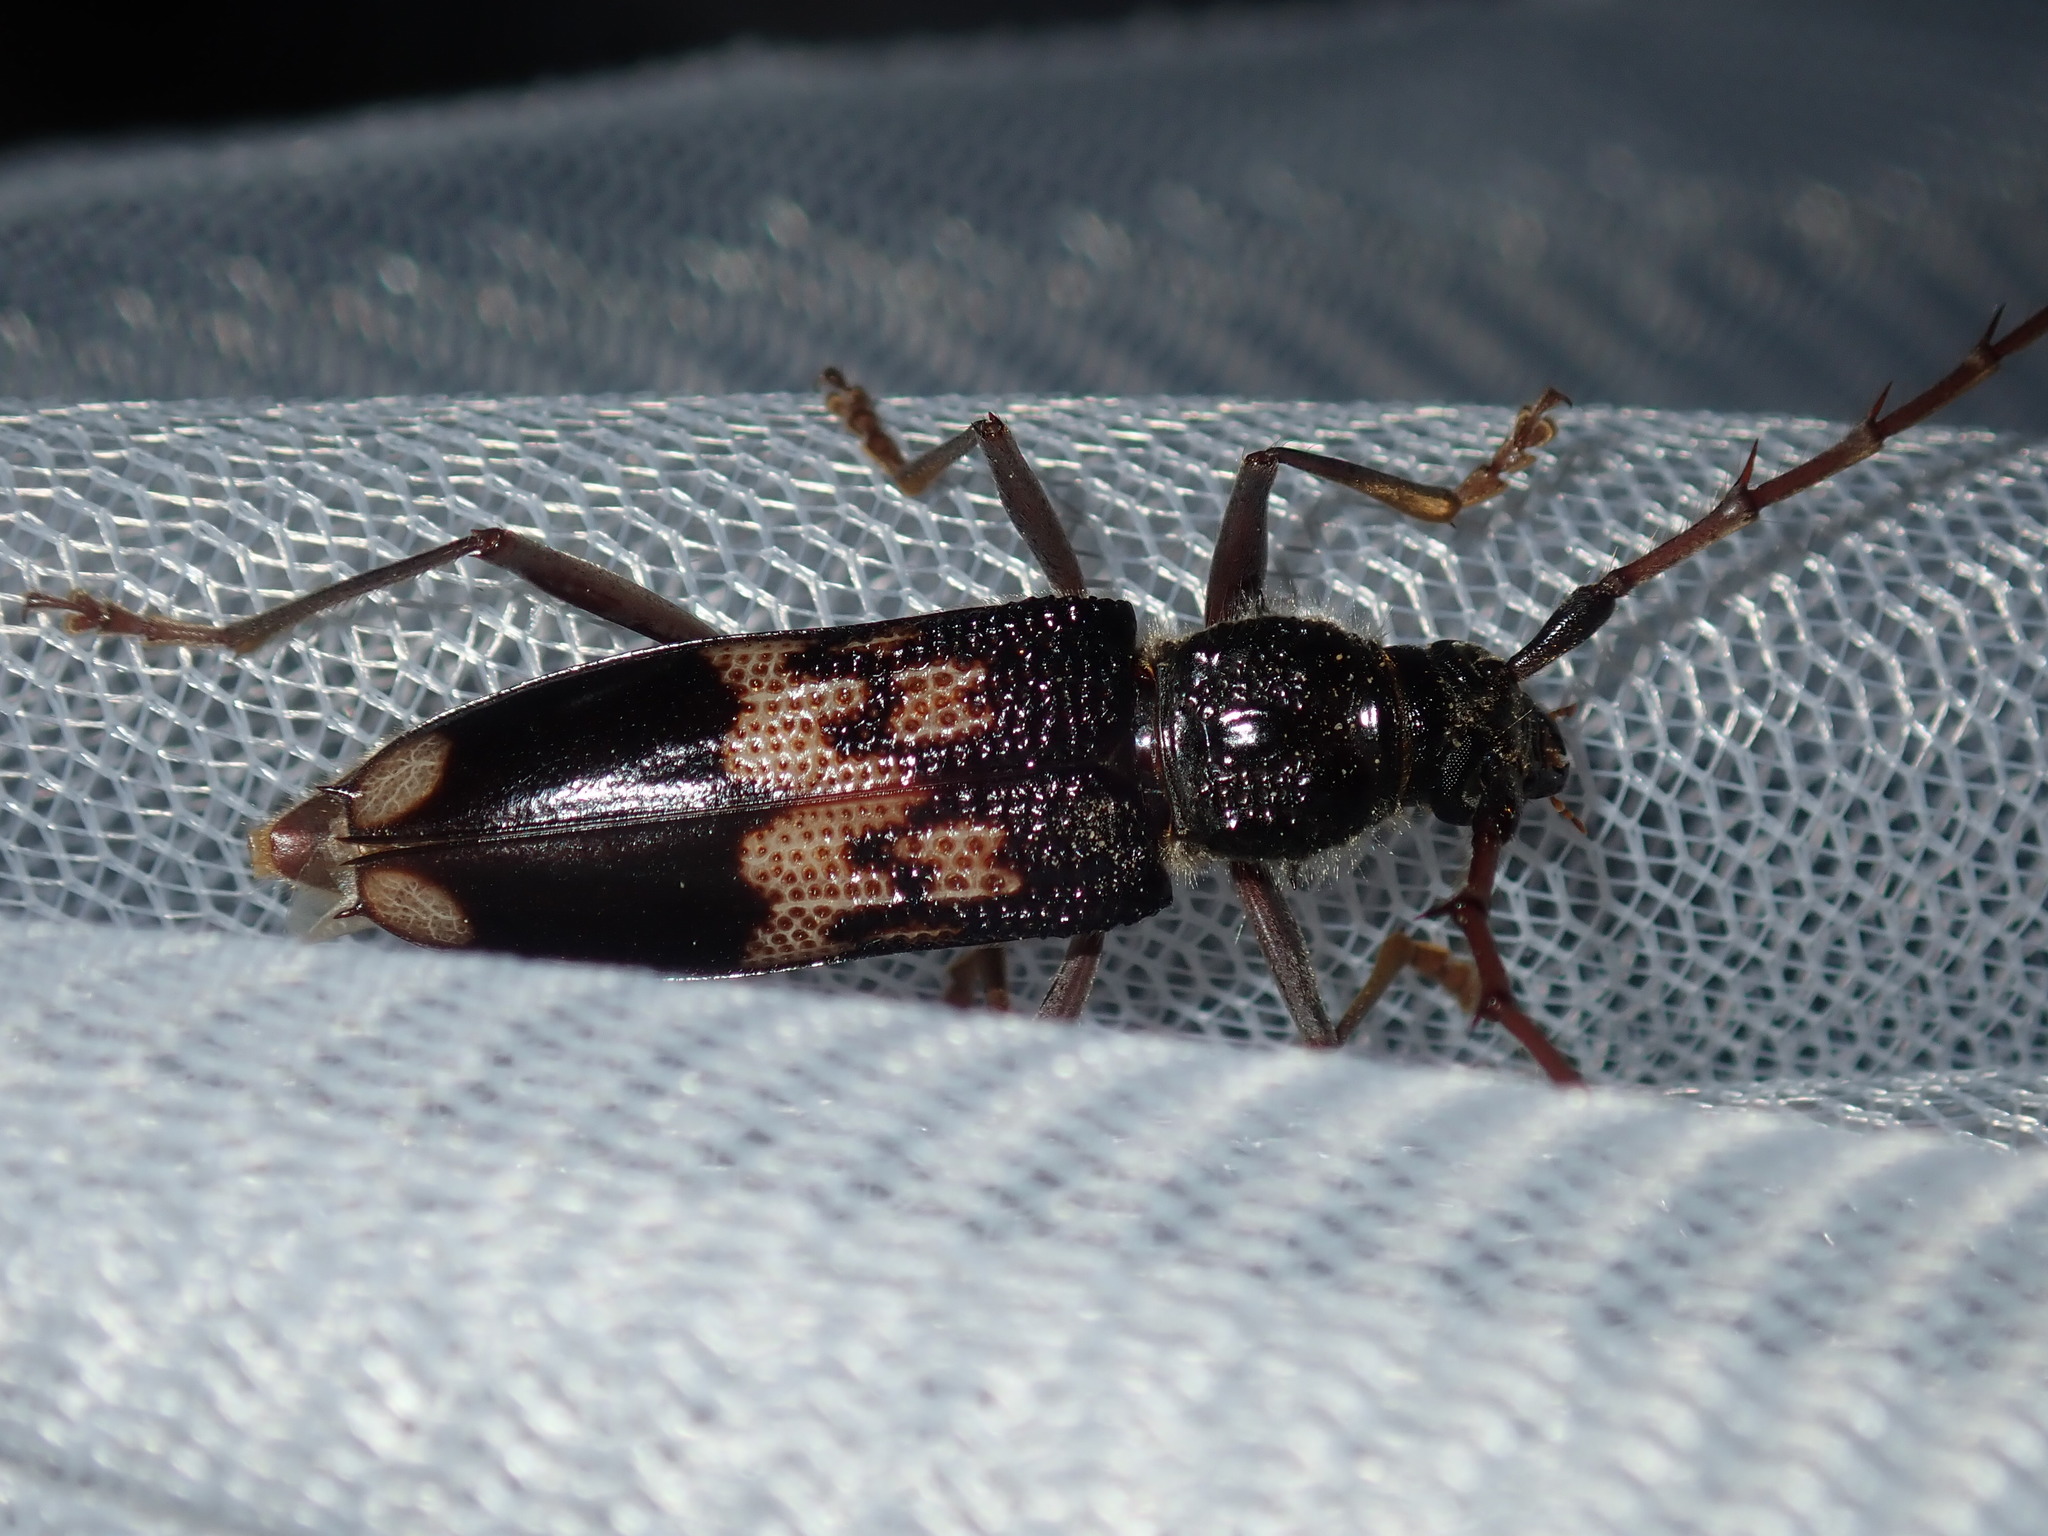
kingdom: Animalia
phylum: Arthropoda
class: Insecta
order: Coleoptera
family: Cerambycidae
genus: Phoracantha
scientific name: Phoracantha semipunctata
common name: Eucalyptus longhorn borer
